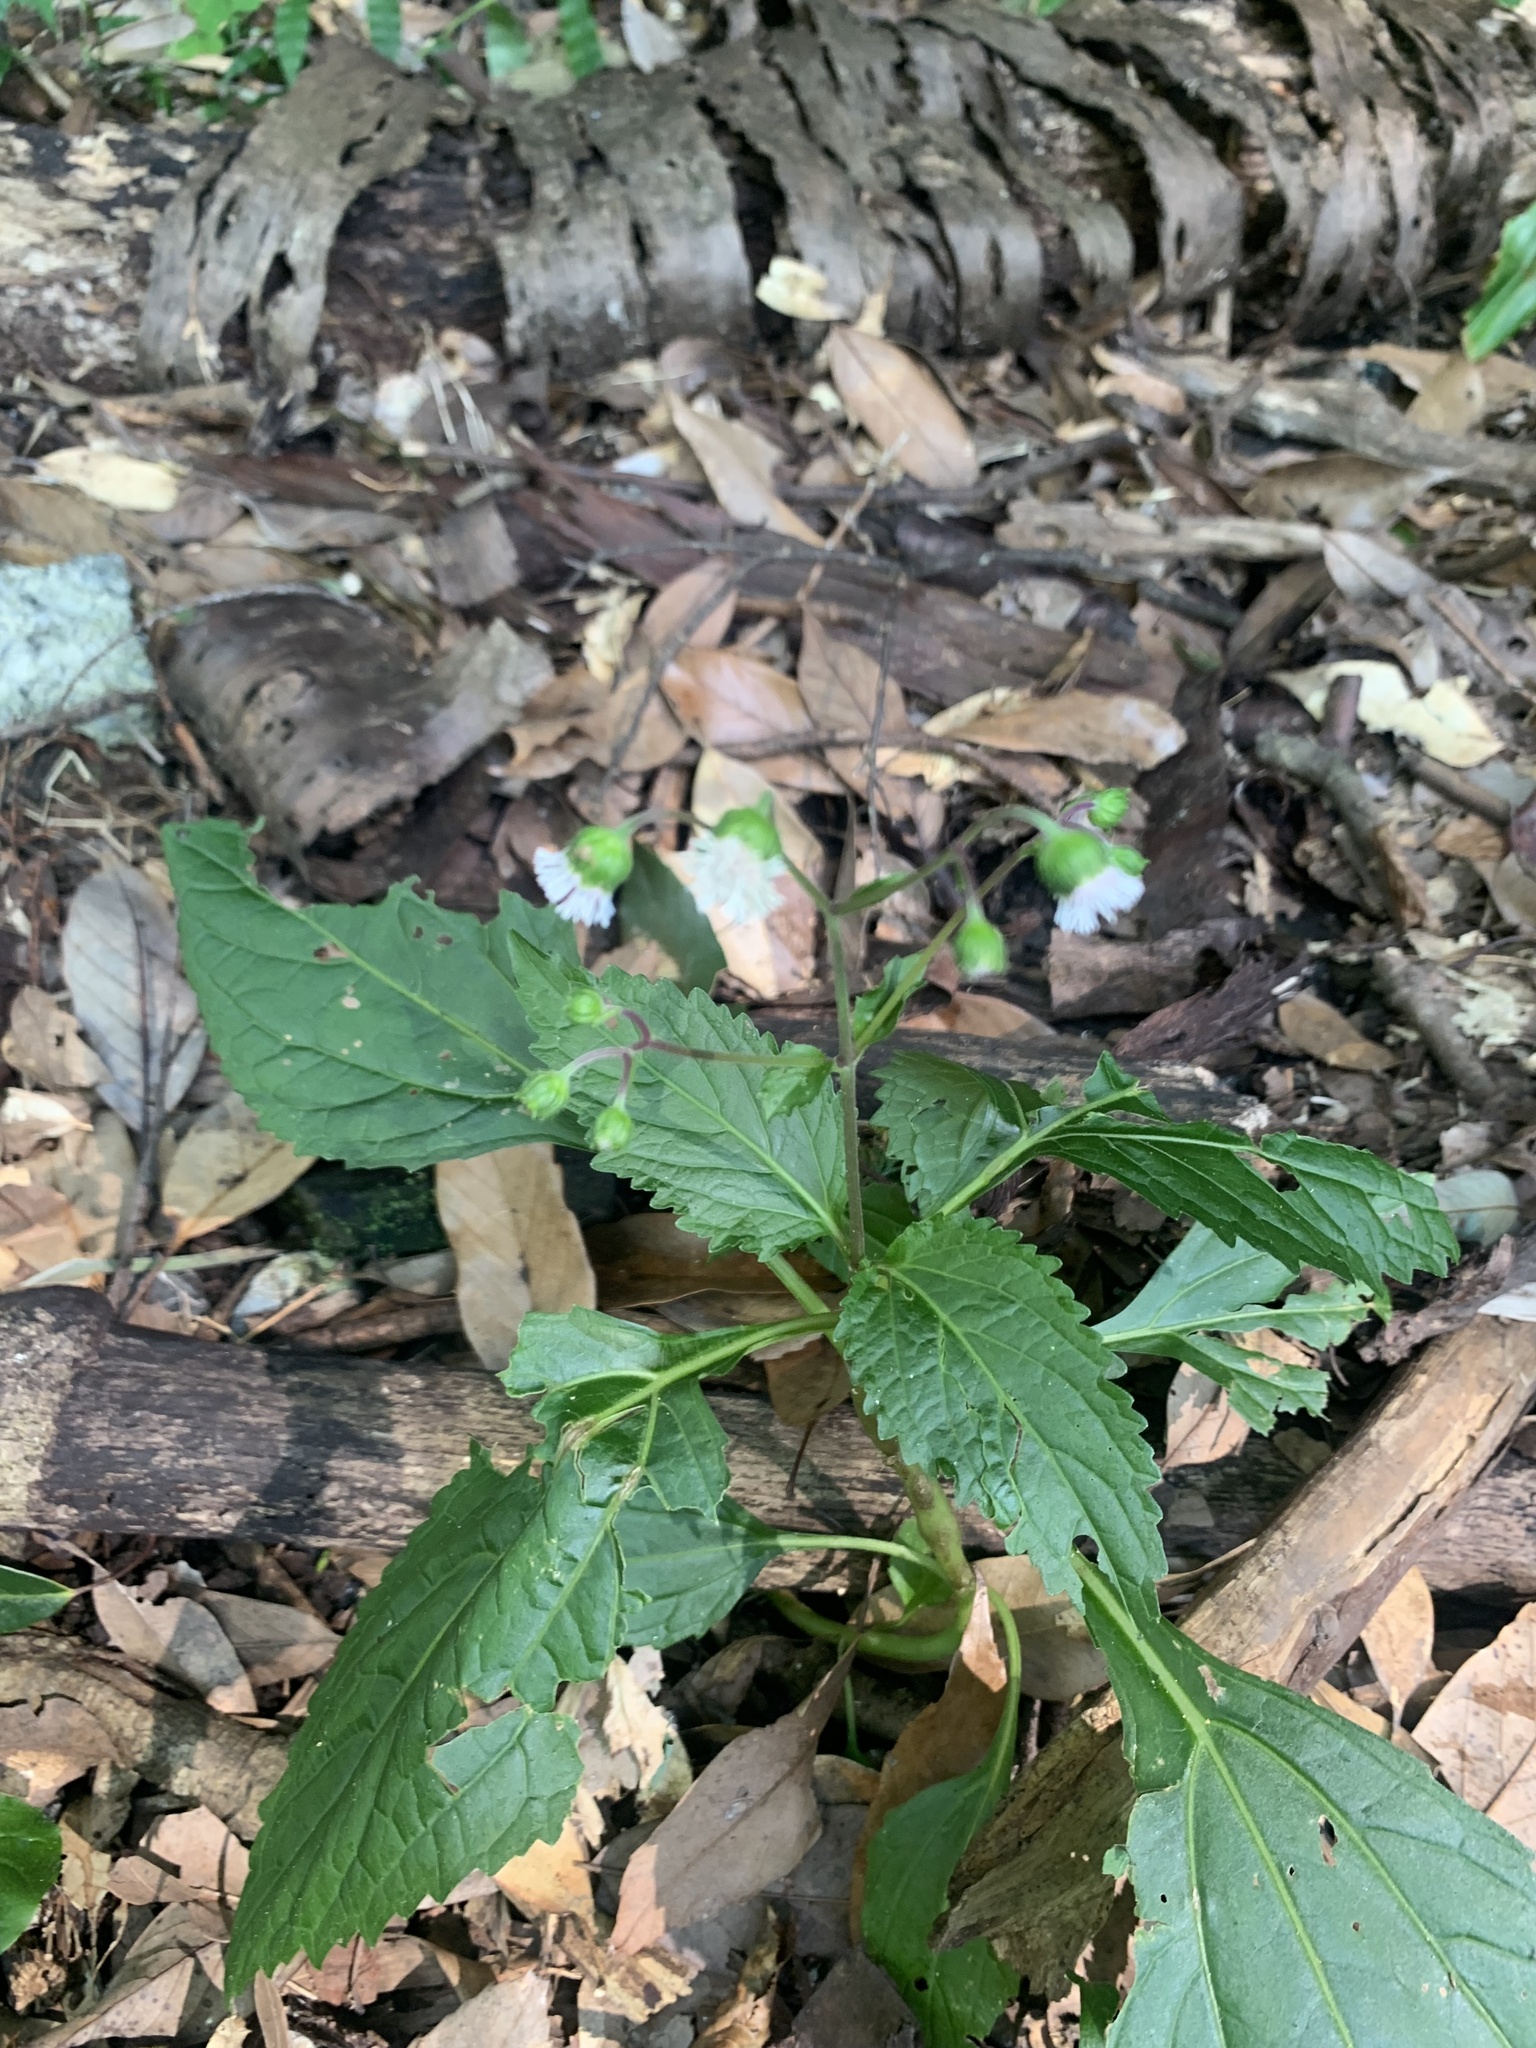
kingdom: Plantae
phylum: Tracheophyta
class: Magnoliopsida
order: Asterales
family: Asteraceae
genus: Adenostemma
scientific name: Adenostemma lavenia
